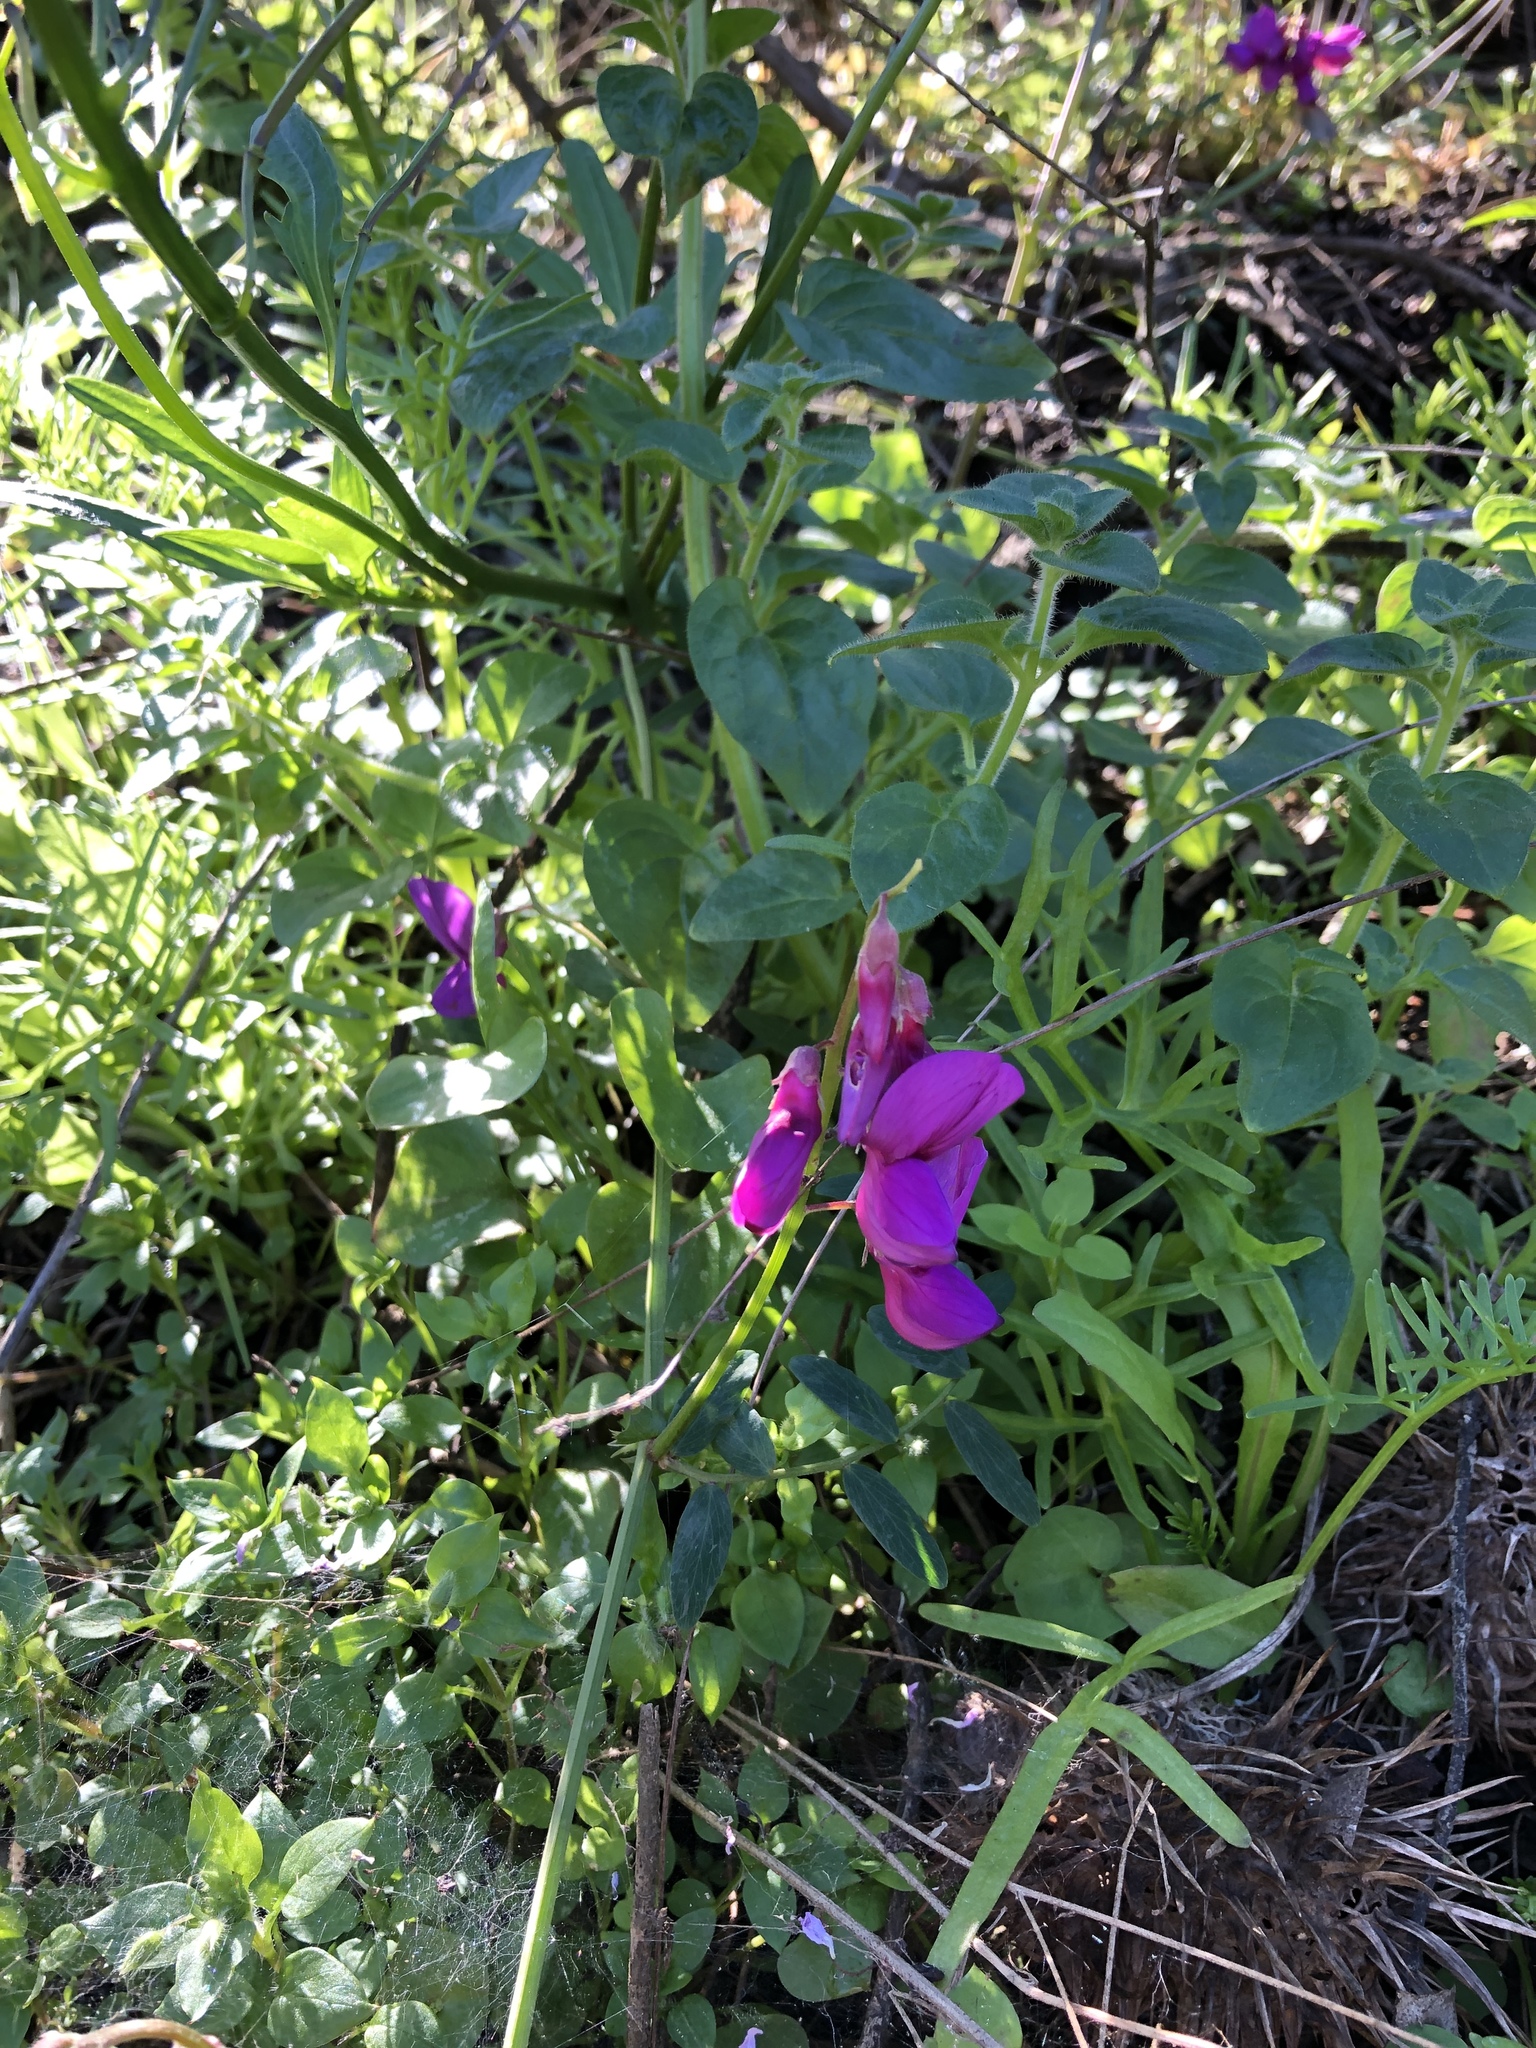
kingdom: Plantae
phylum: Tracheophyta
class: Magnoliopsida
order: Fabales
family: Fabaceae
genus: Lathyrus
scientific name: Lathyrus vestitus
